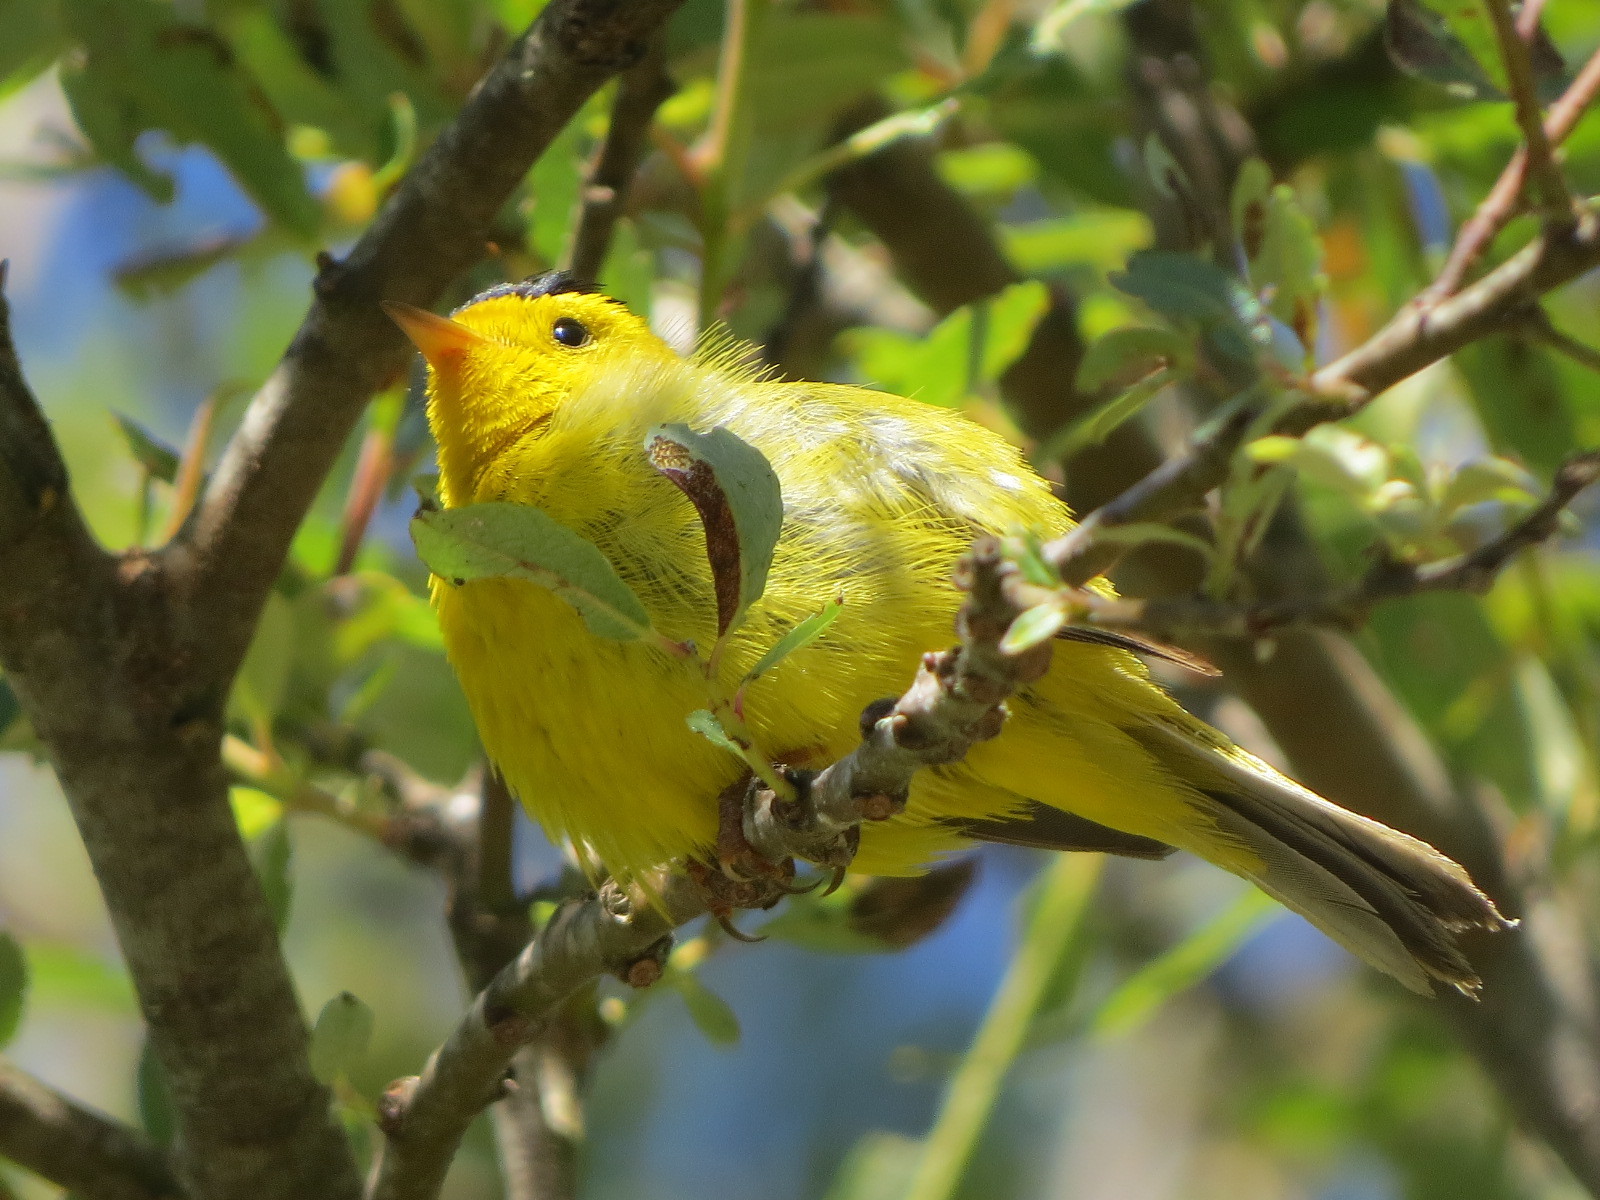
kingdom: Animalia
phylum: Chordata
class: Aves
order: Passeriformes
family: Parulidae
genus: Cardellina
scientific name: Cardellina pusilla
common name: Wilson's warbler
